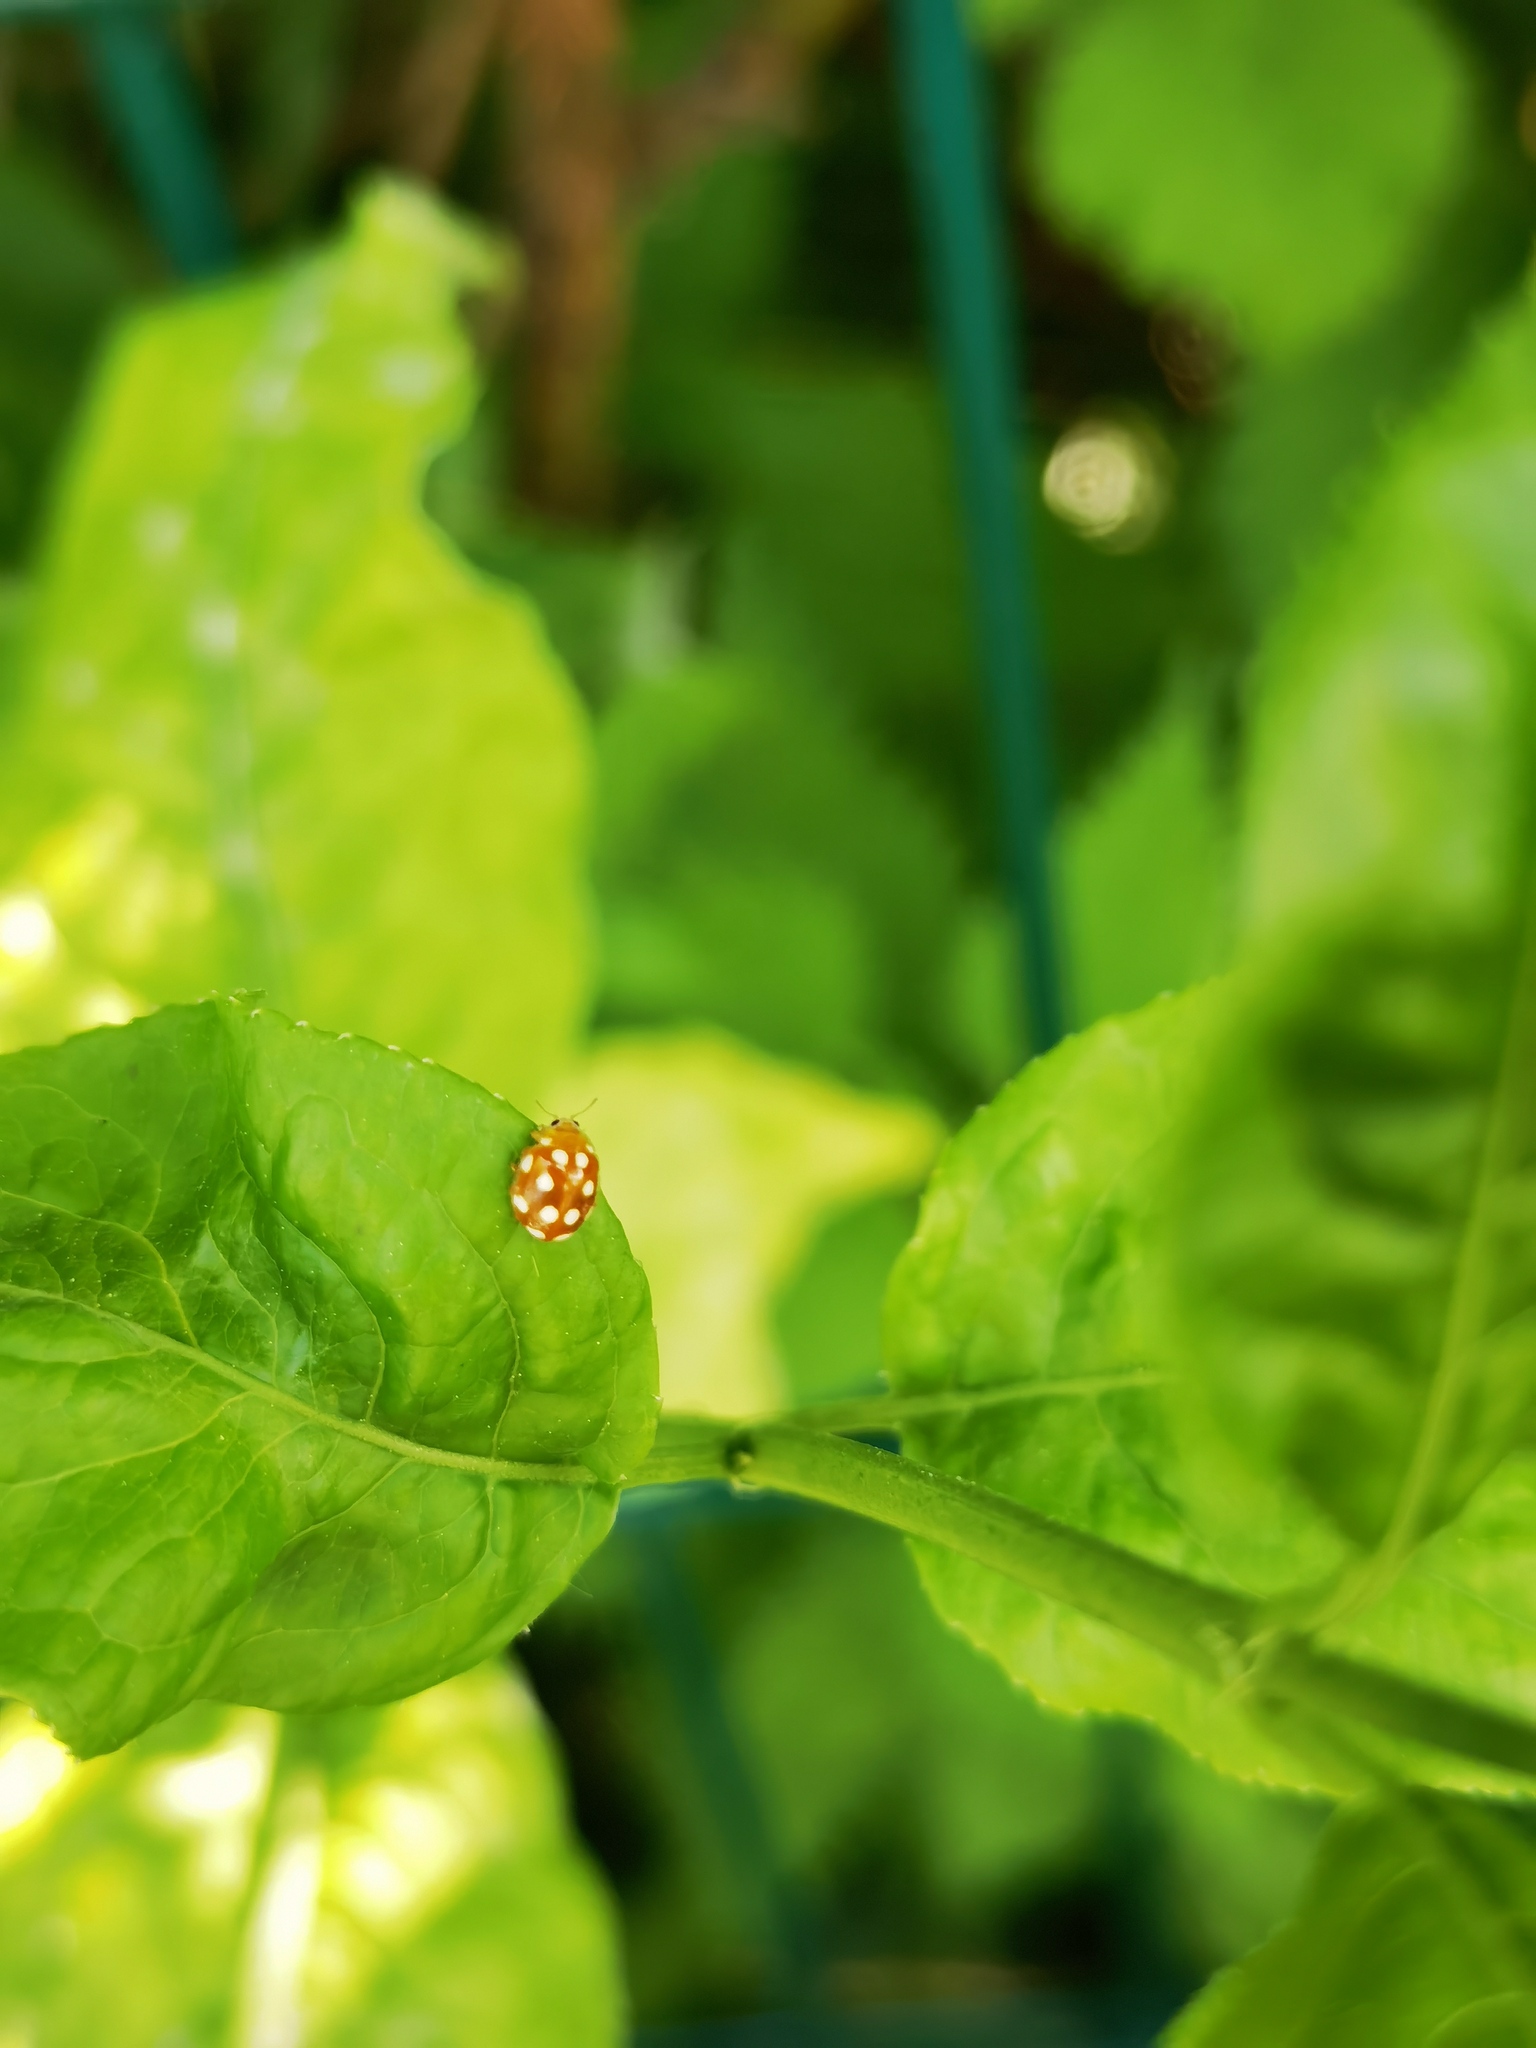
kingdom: Animalia
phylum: Arthropoda
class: Insecta
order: Coleoptera
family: Coccinellidae
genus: Vibidia
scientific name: Vibidia duodecimguttata
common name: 12-spot ladybird
